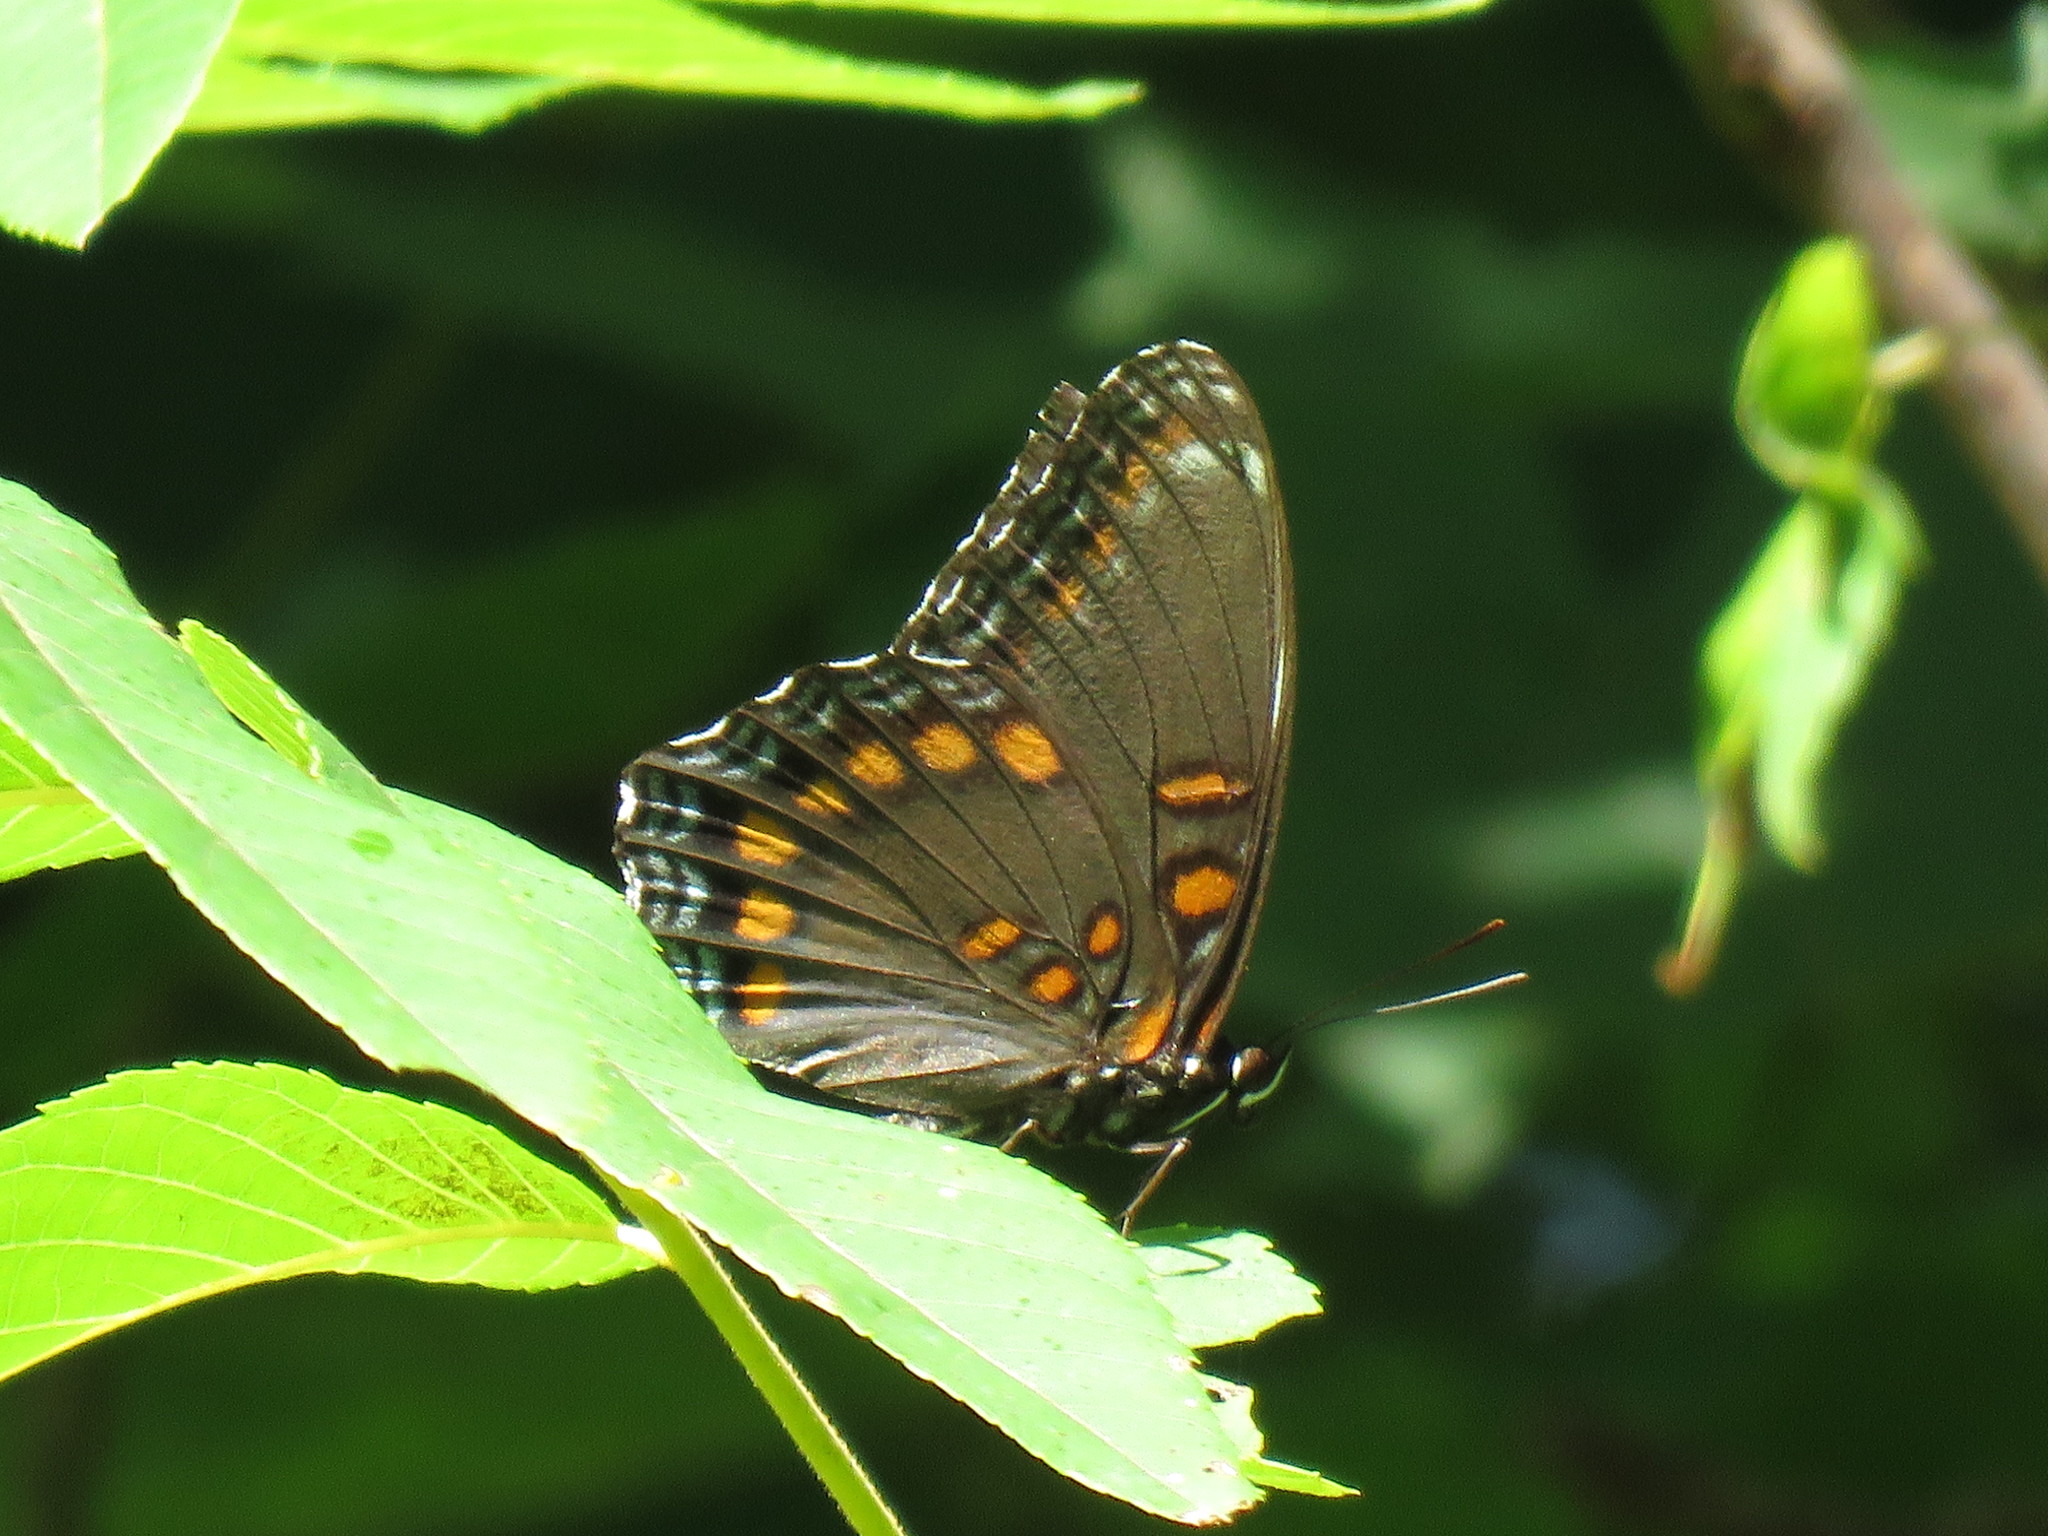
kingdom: Animalia
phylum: Arthropoda
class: Insecta
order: Lepidoptera
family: Nymphalidae
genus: Limenitis
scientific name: Limenitis arthemis
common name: Red-spotted admiral
